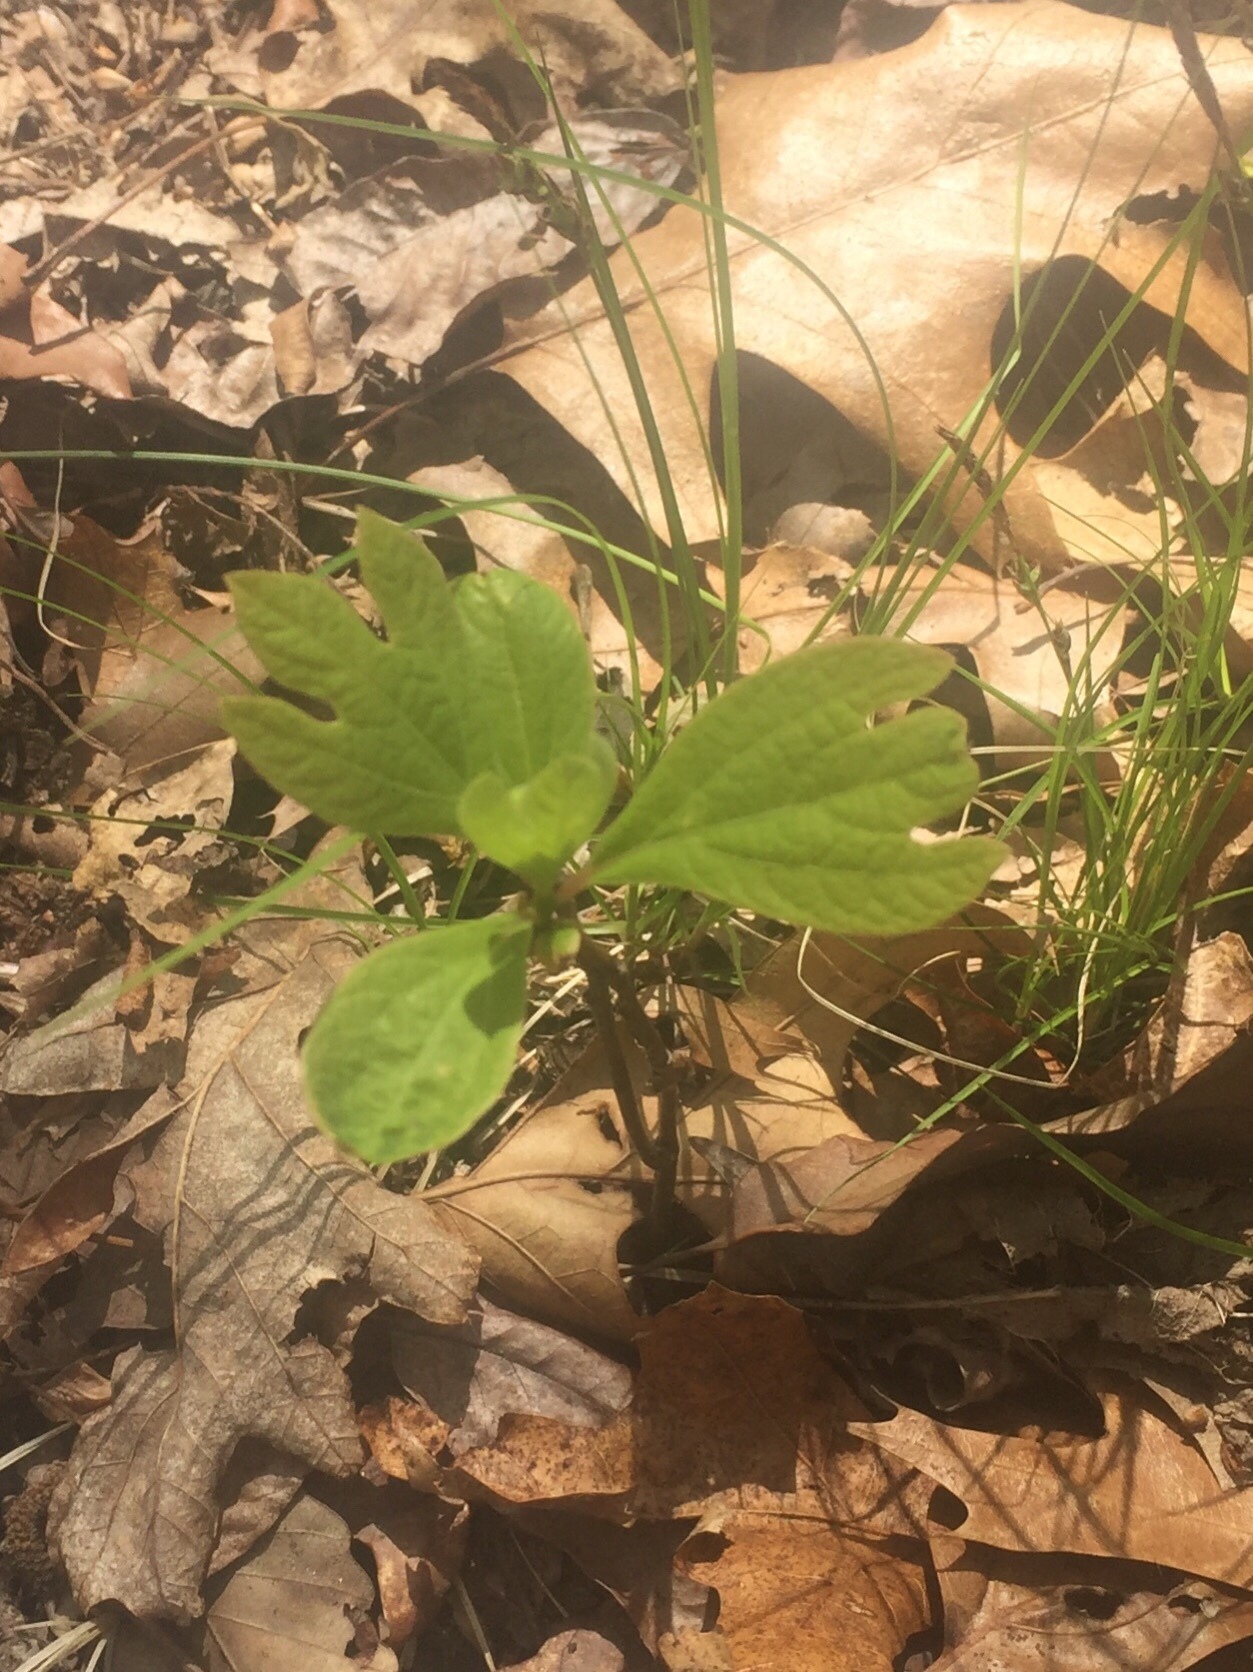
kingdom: Plantae
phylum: Tracheophyta
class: Magnoliopsida
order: Laurales
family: Lauraceae
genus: Sassafras
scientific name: Sassafras albidum
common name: Sassafras
